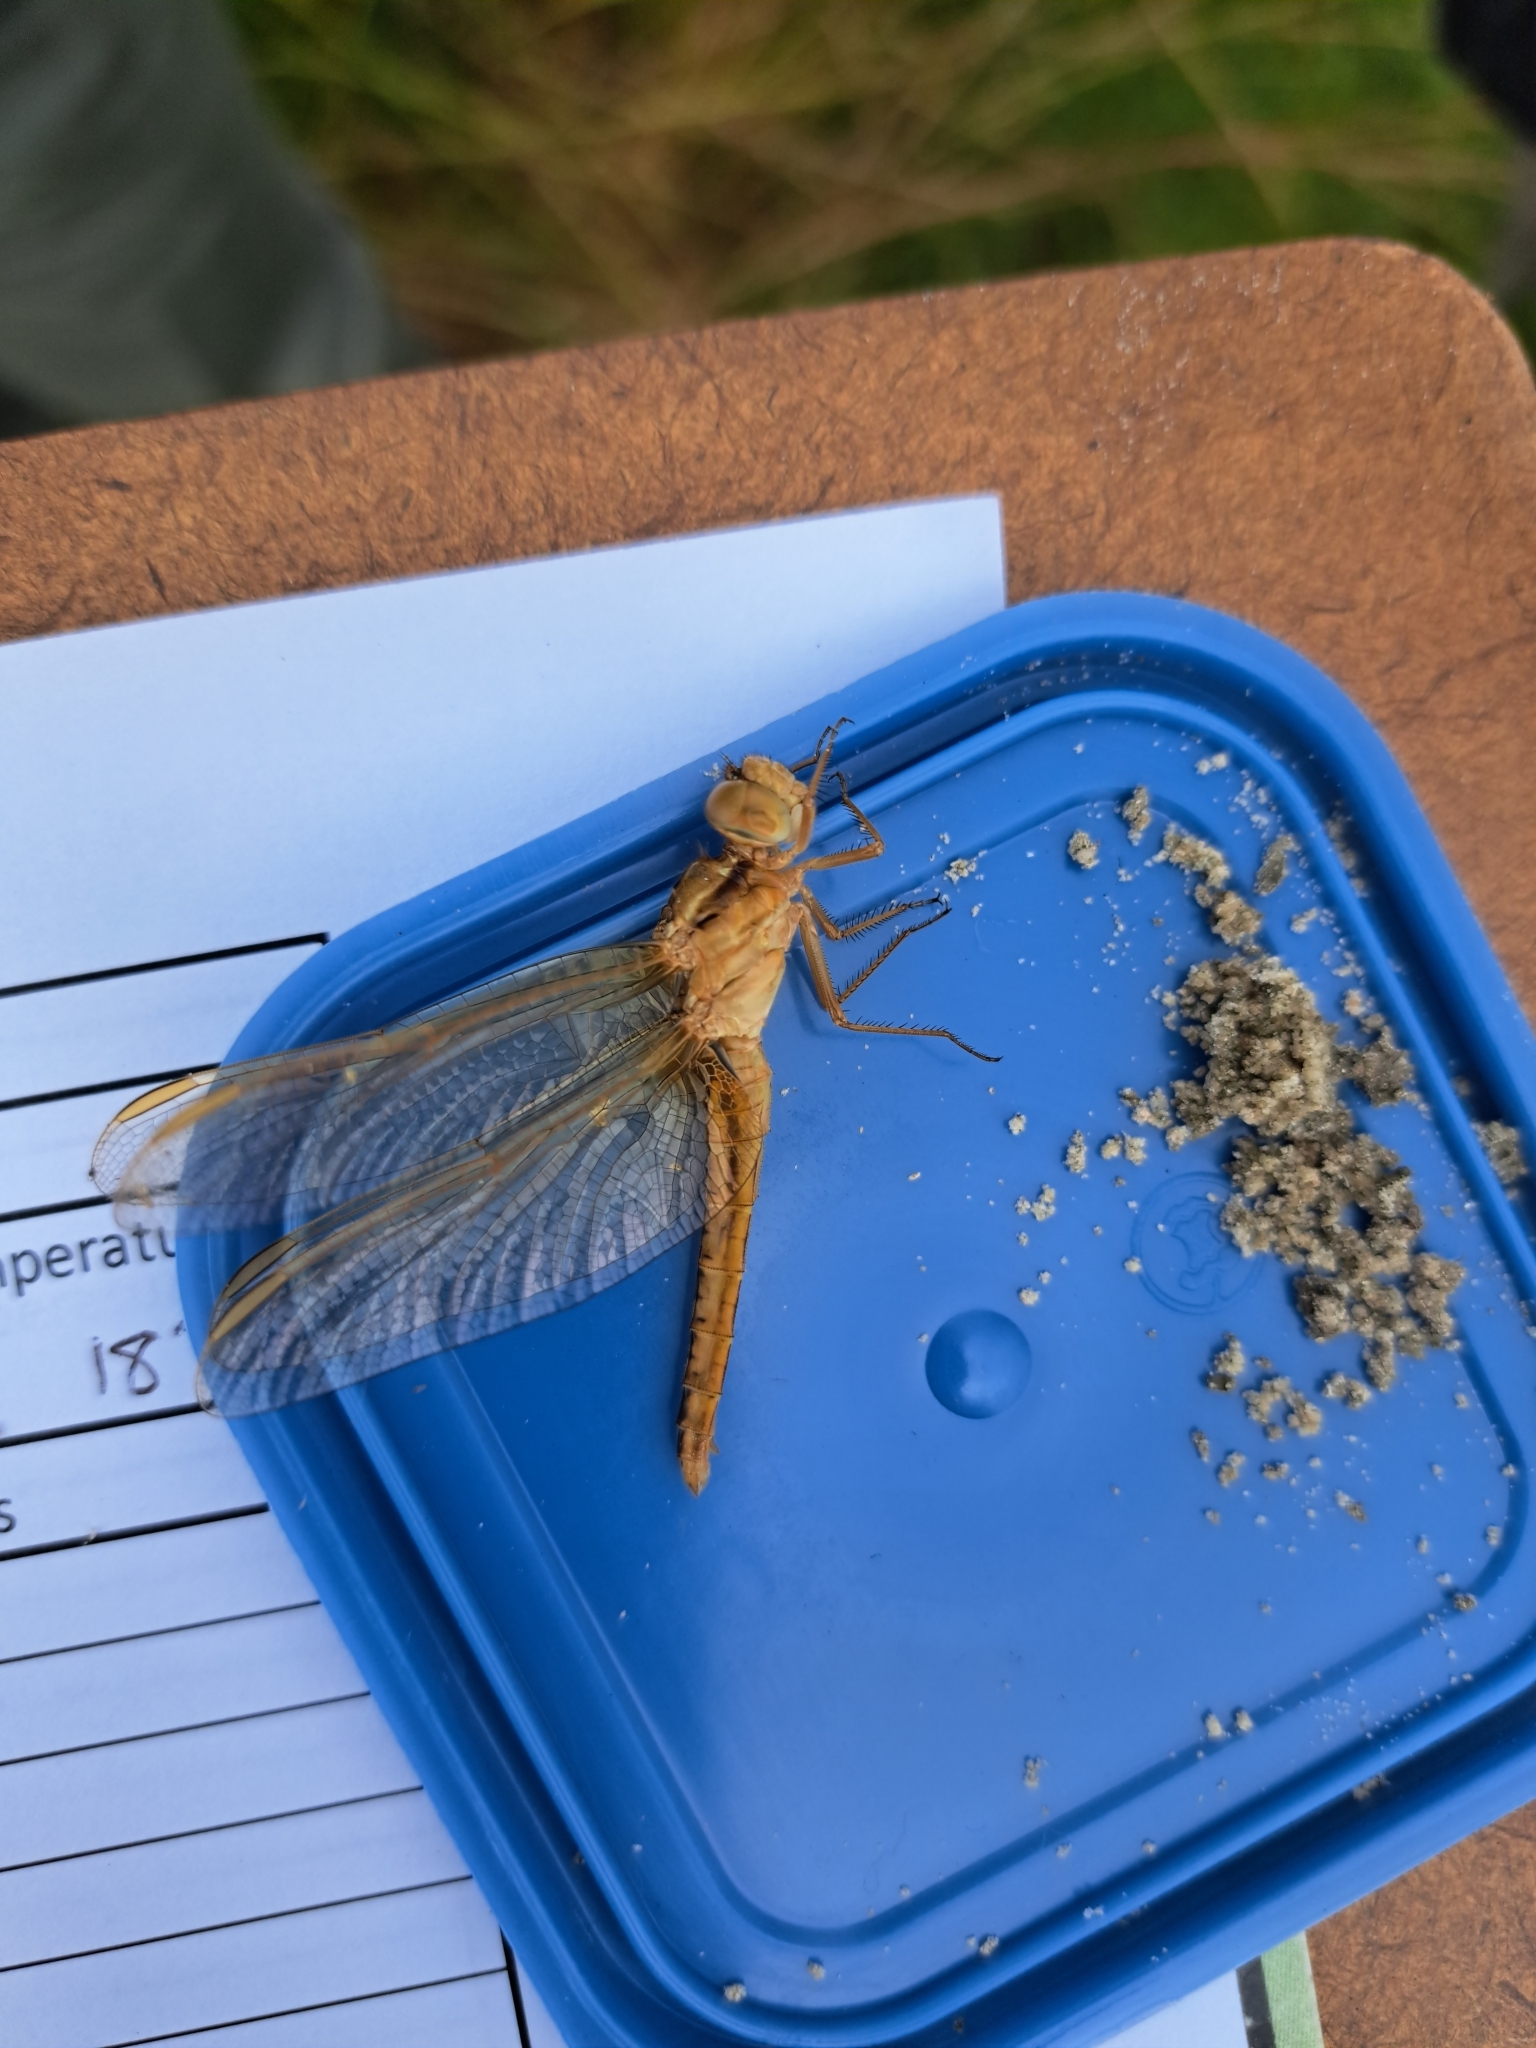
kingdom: Animalia
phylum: Arthropoda
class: Insecta
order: Odonata
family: Libellulidae
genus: Crocothemis
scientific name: Crocothemis erythraea
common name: Scarlet dragonfly
